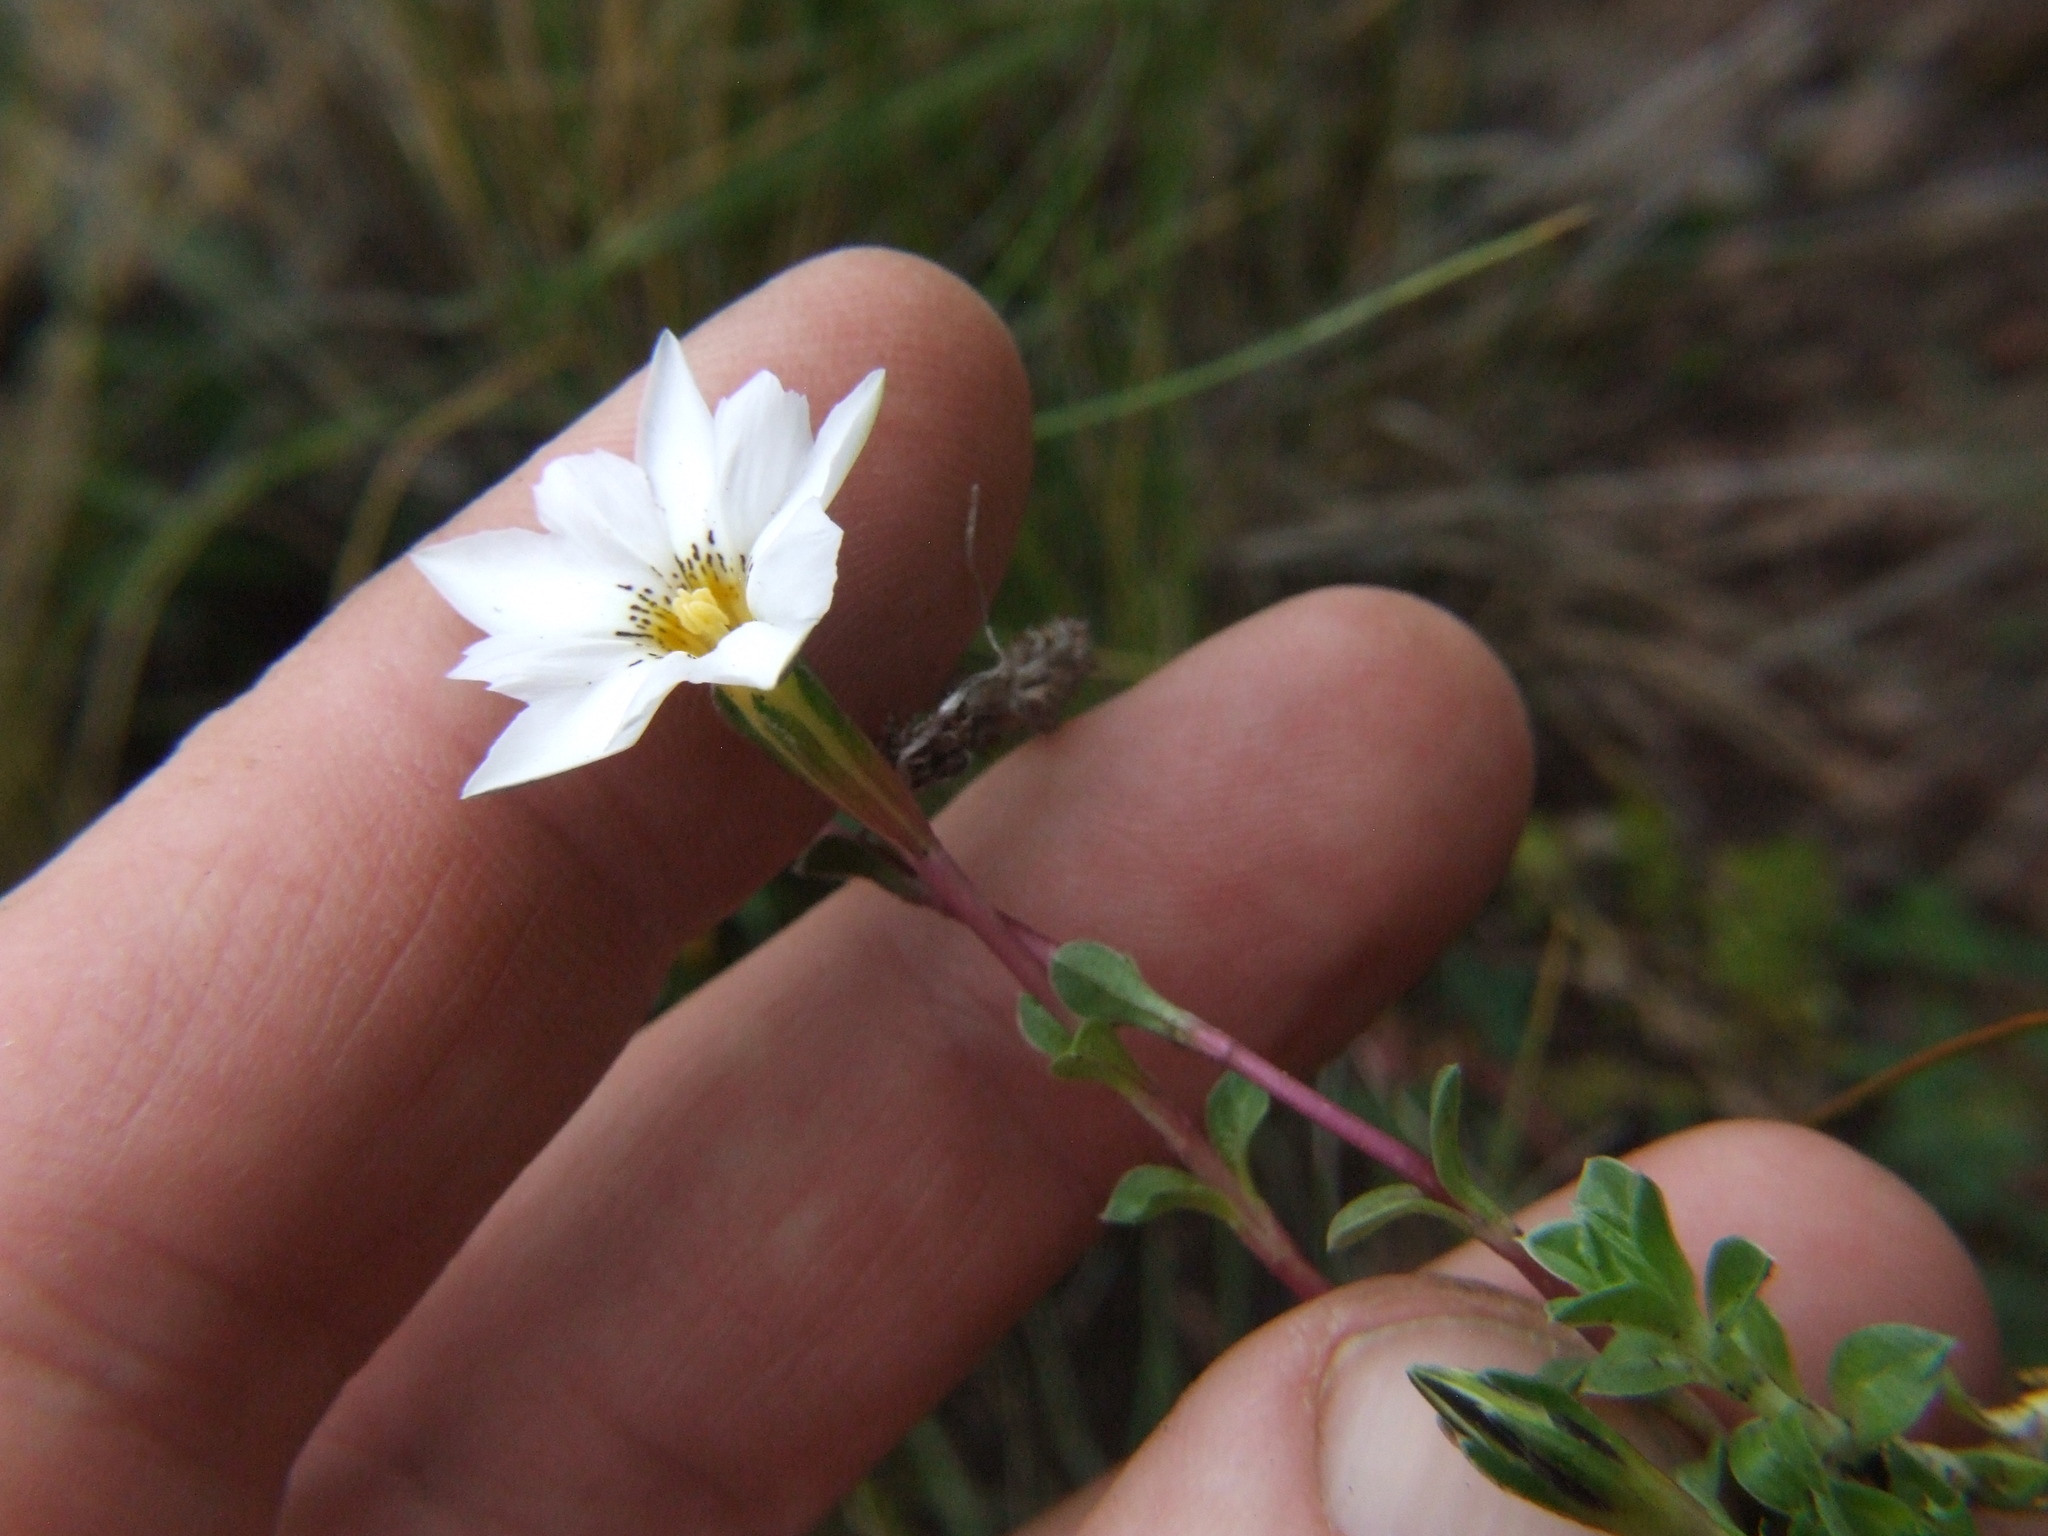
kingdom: Plantae
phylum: Tracheophyta
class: Magnoliopsida
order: Gentianales
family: Gentianaceae
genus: Gentiana
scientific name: Gentiana sedifolia
